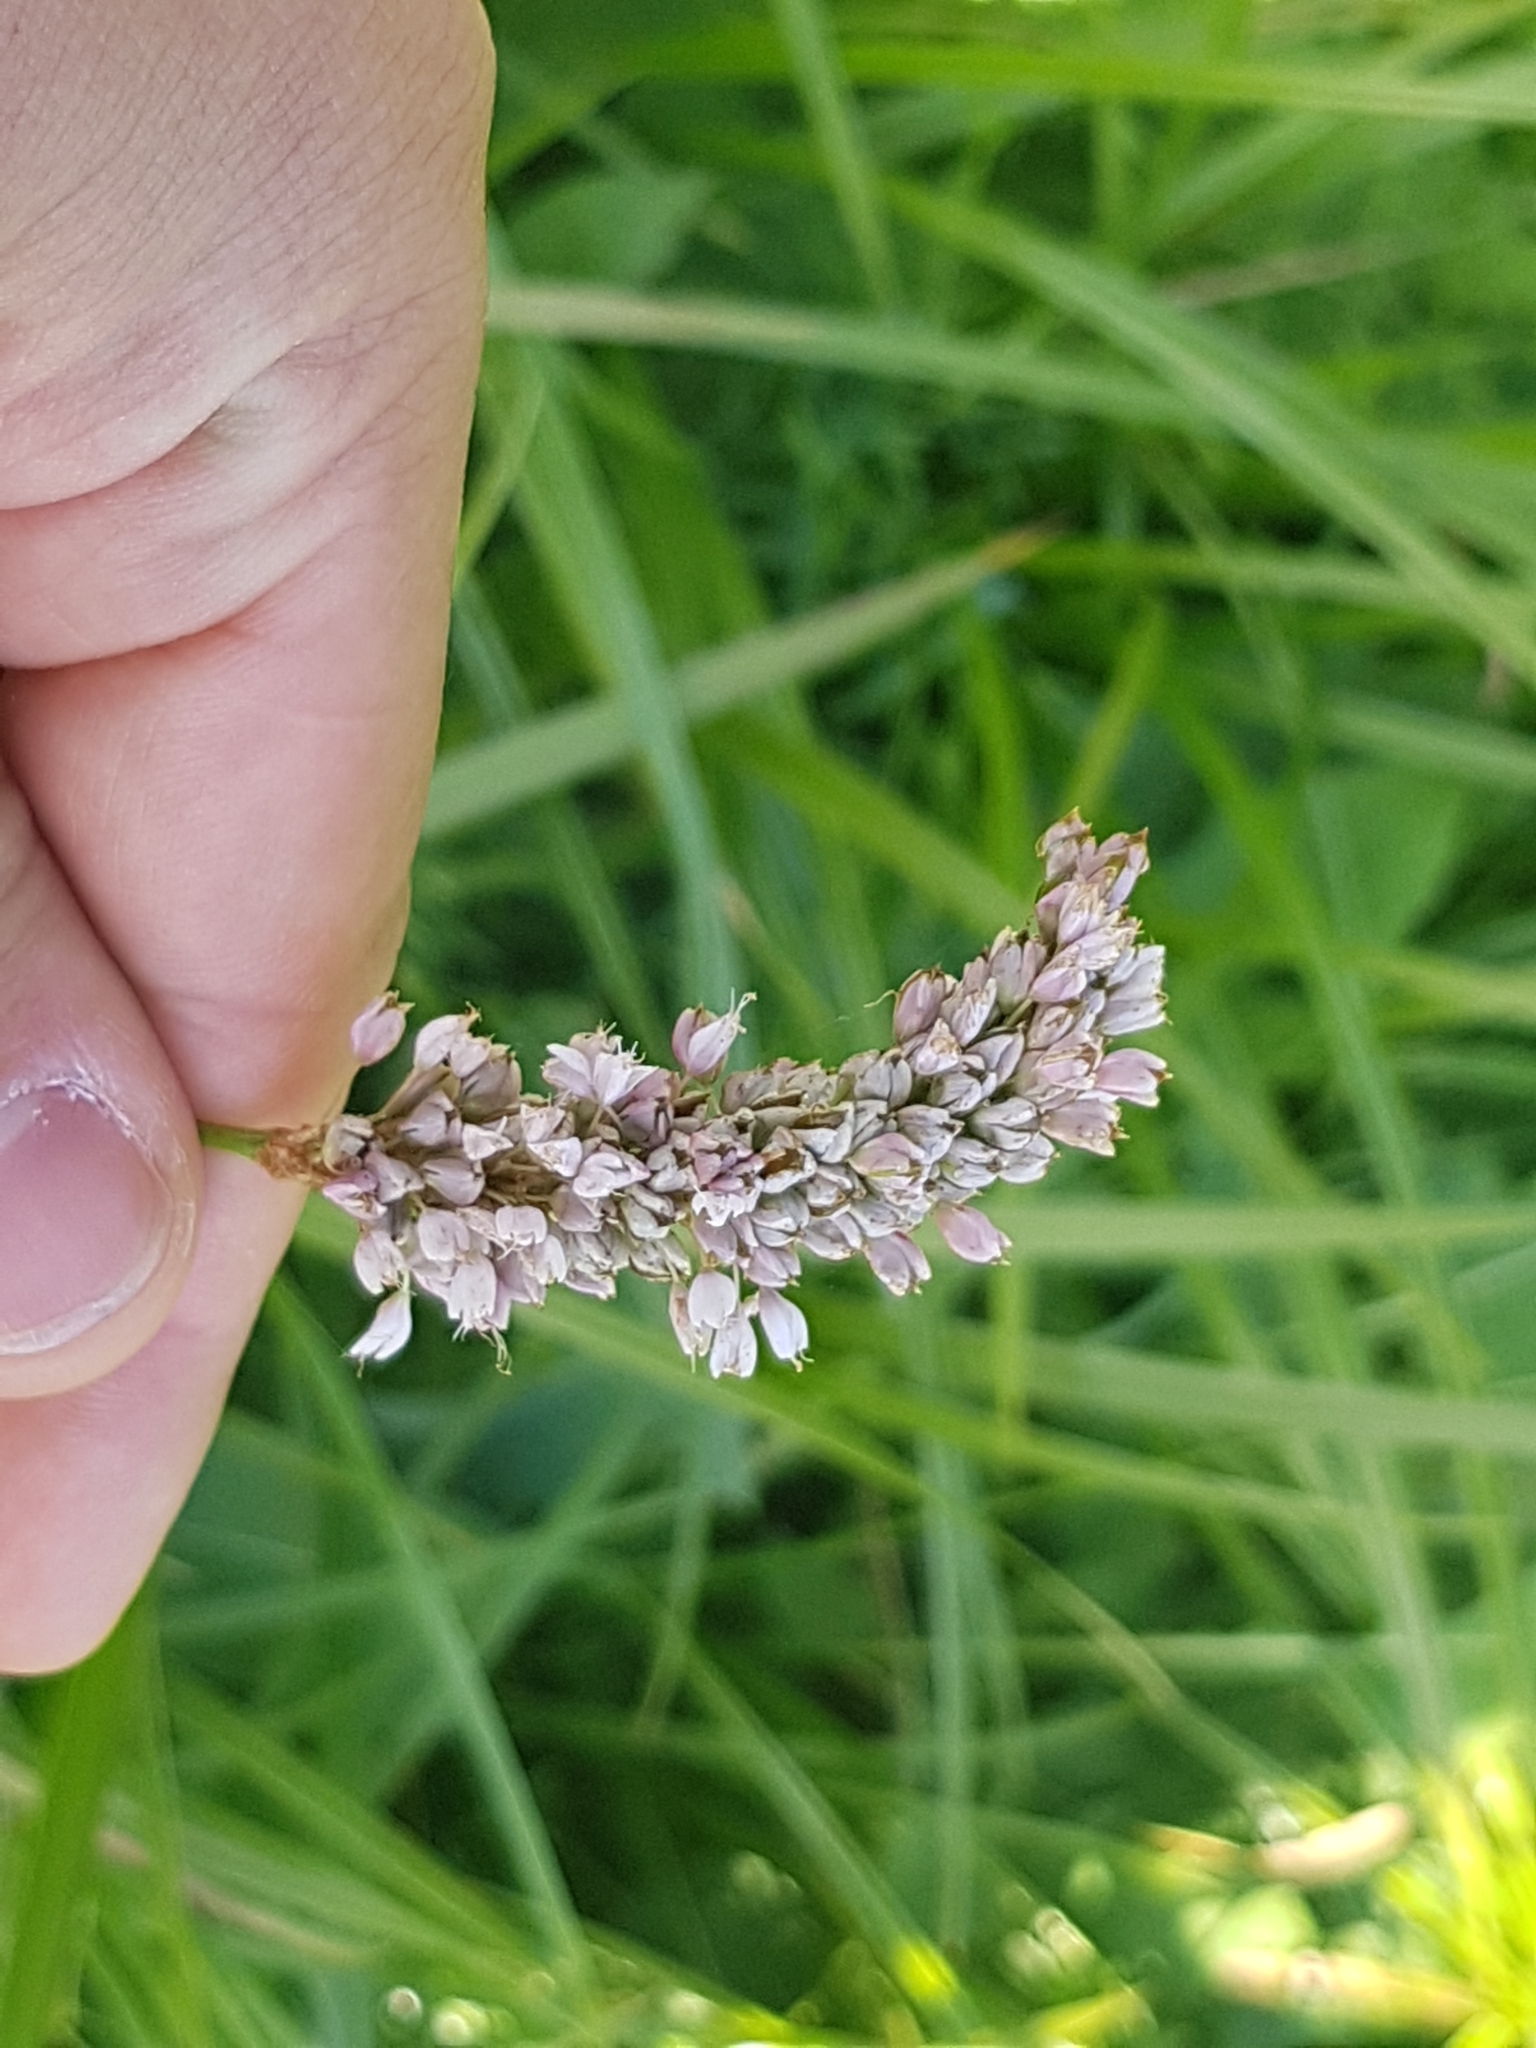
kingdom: Plantae
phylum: Tracheophyta
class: Magnoliopsida
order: Caryophyllales
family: Polygonaceae
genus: Bistorta
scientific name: Bistorta officinalis
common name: Common bistort
